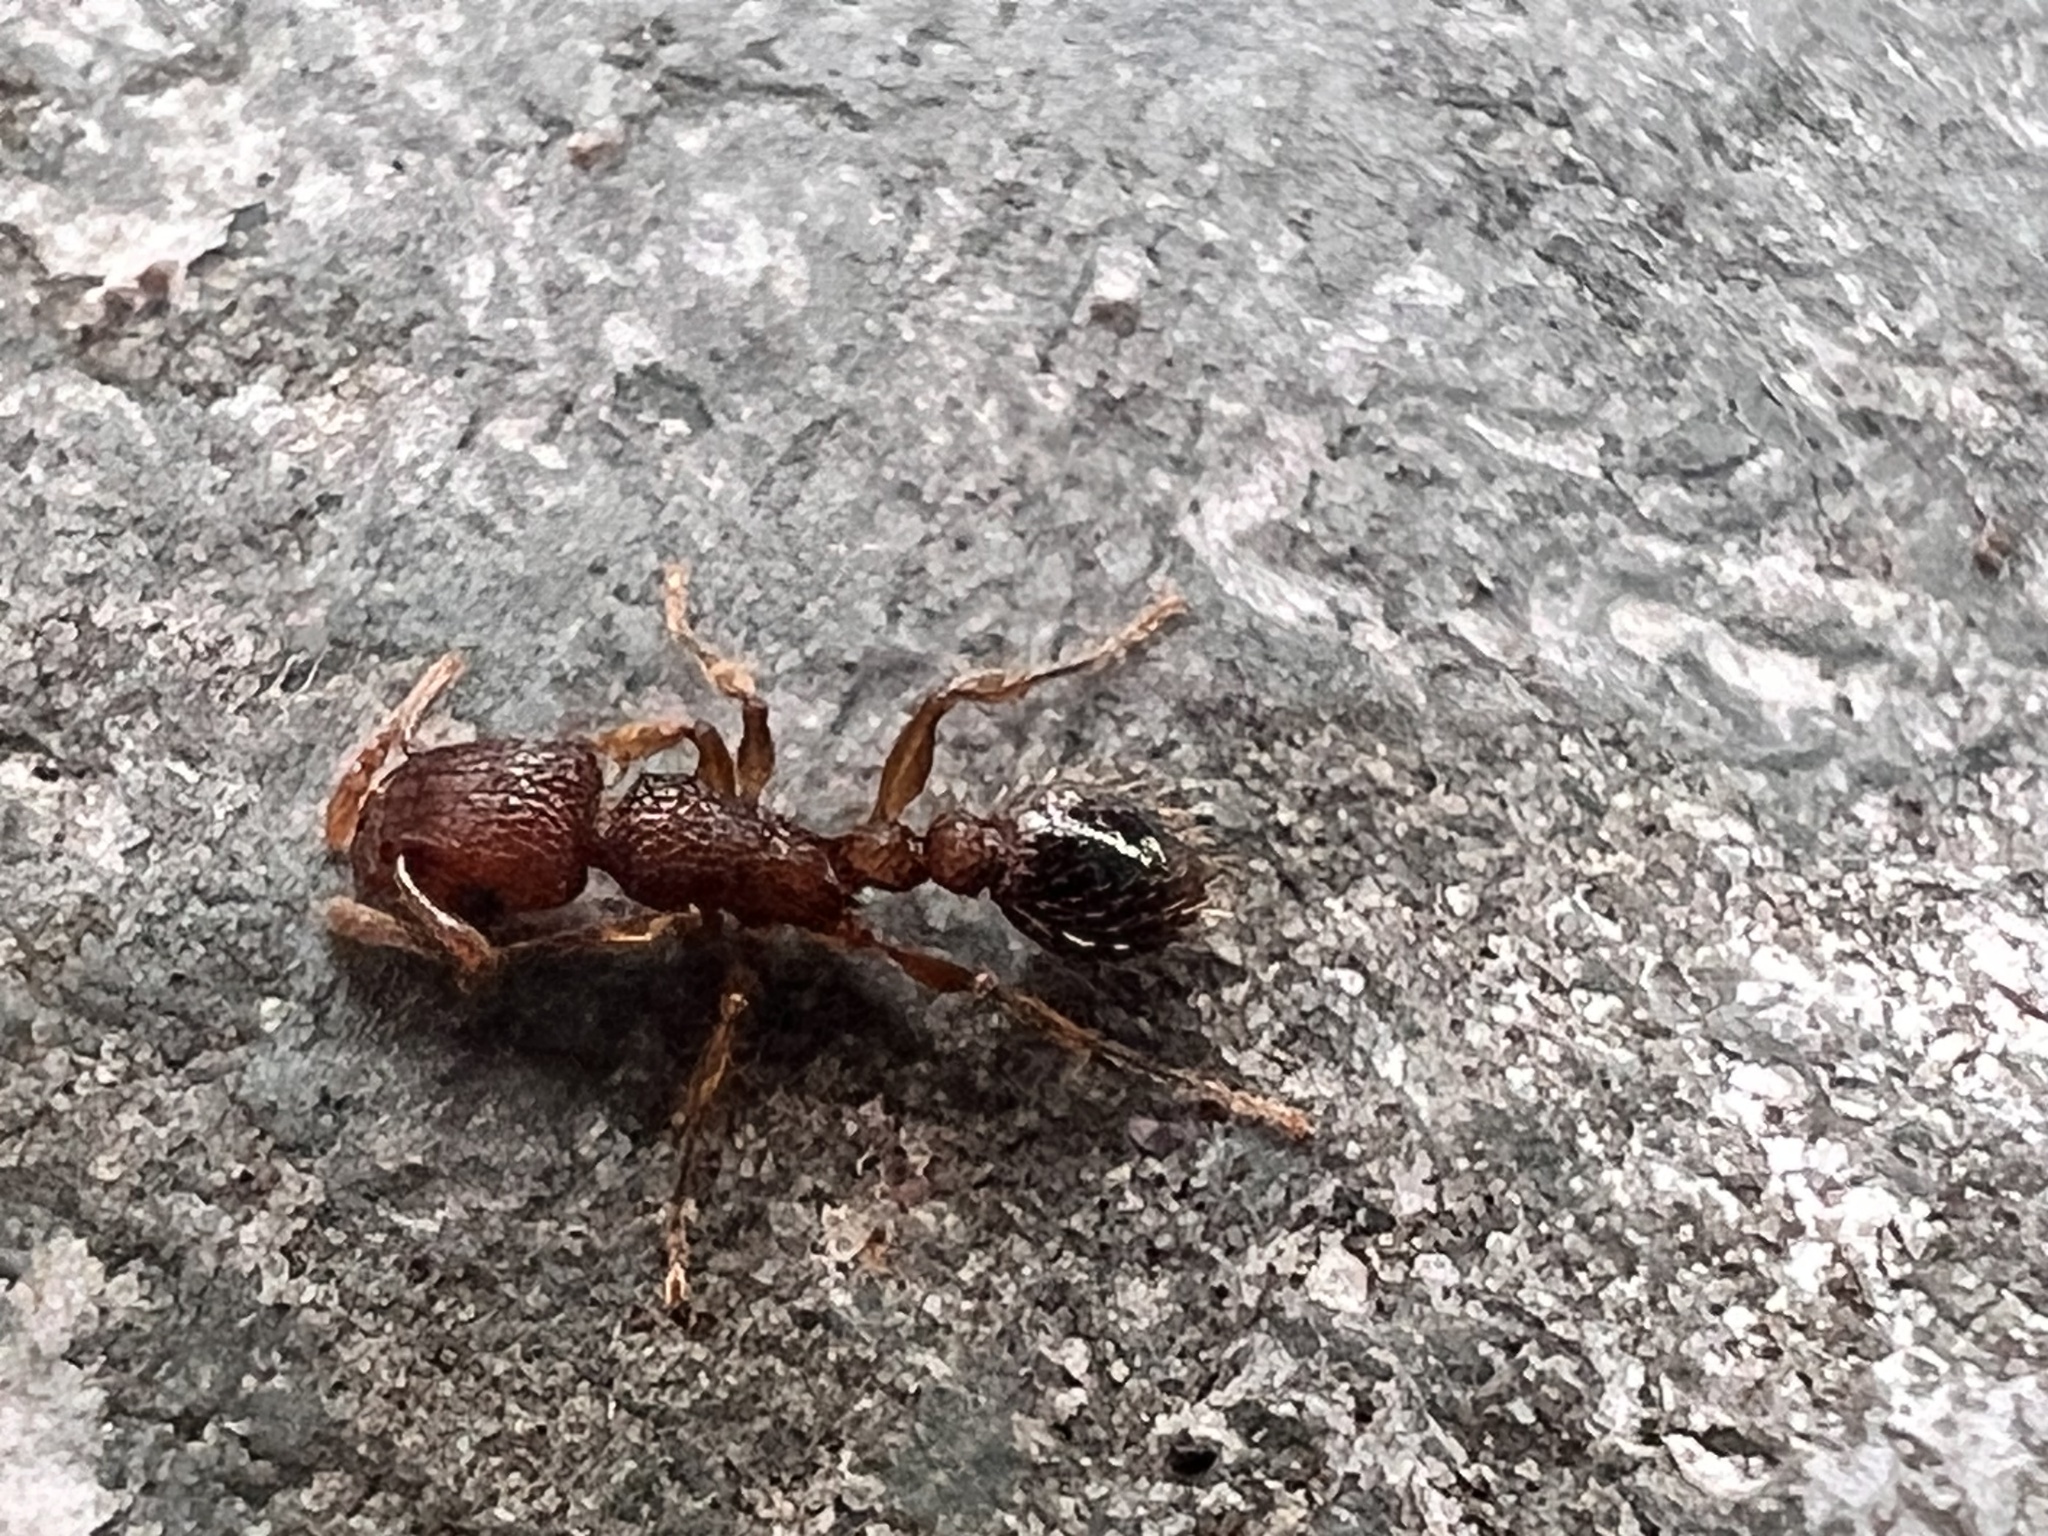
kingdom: Animalia
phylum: Arthropoda
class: Insecta
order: Hymenoptera
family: Formicidae
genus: Tetramorium
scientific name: Tetramorium bicarinatum
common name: Guinea ant
